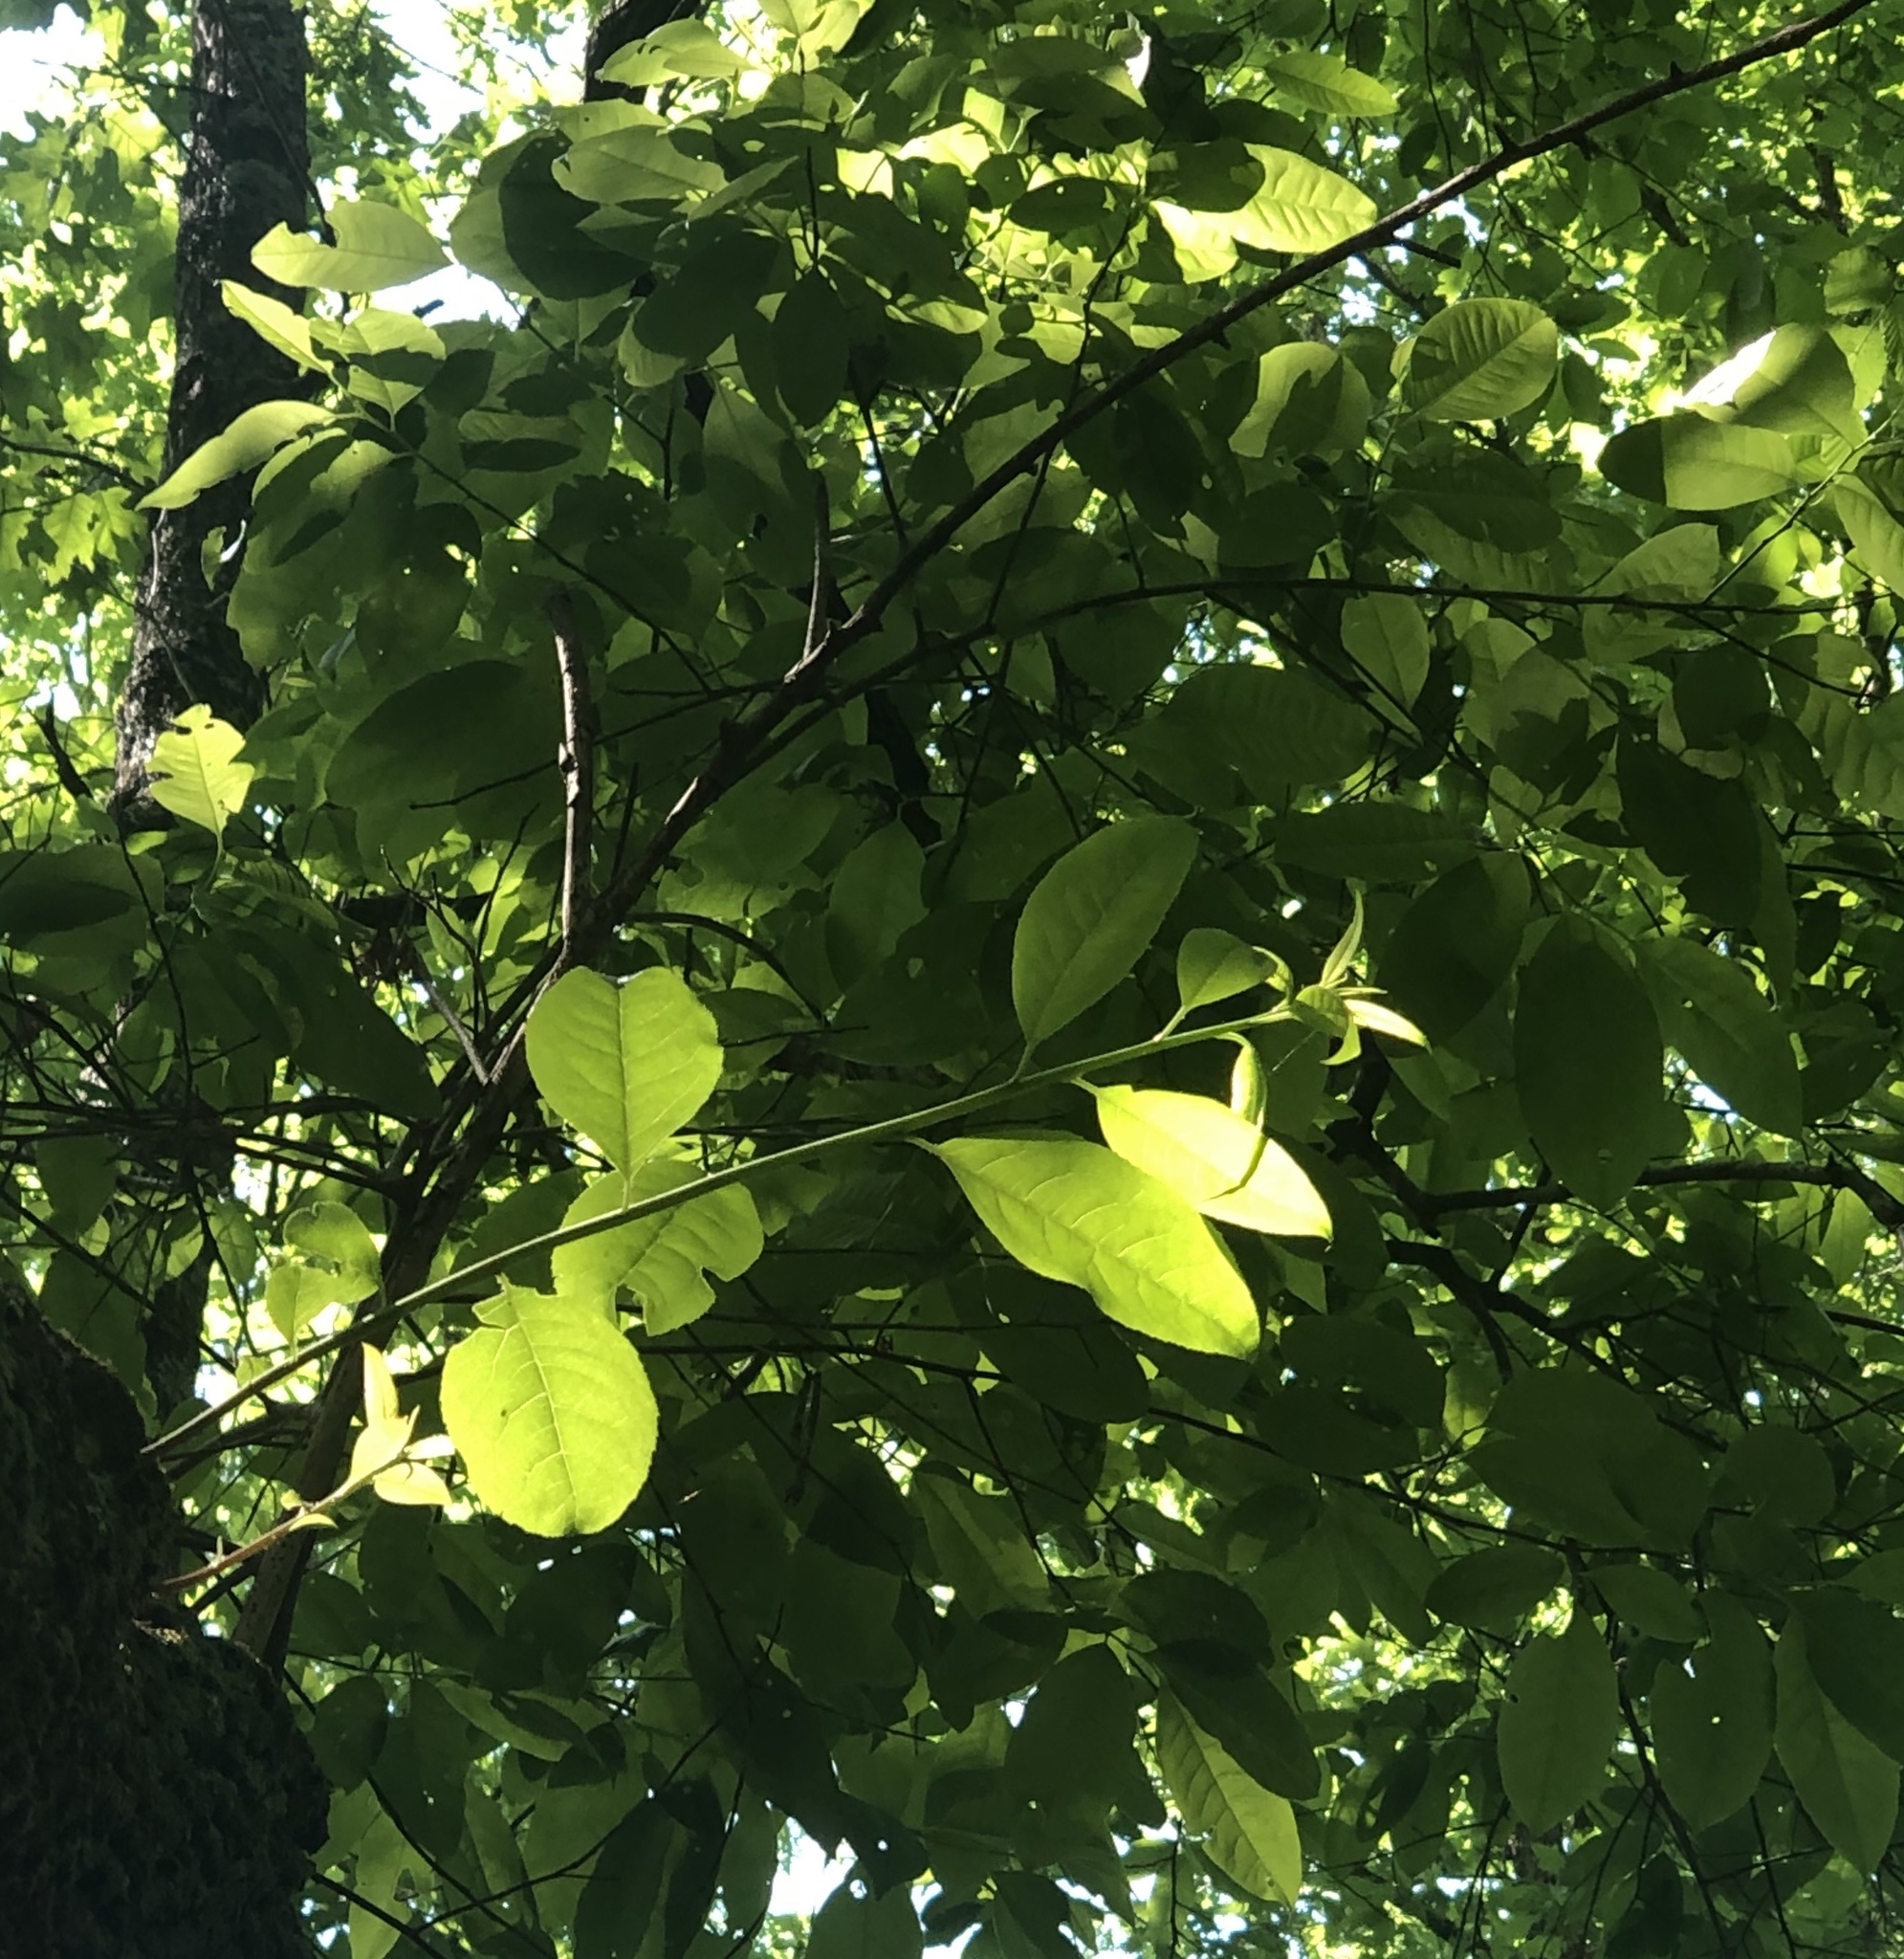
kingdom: Plantae
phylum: Tracheophyta
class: Magnoliopsida
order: Ericales
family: Ericaceae
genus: Oxydendrum
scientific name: Oxydendrum arboreum
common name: Sourwood
